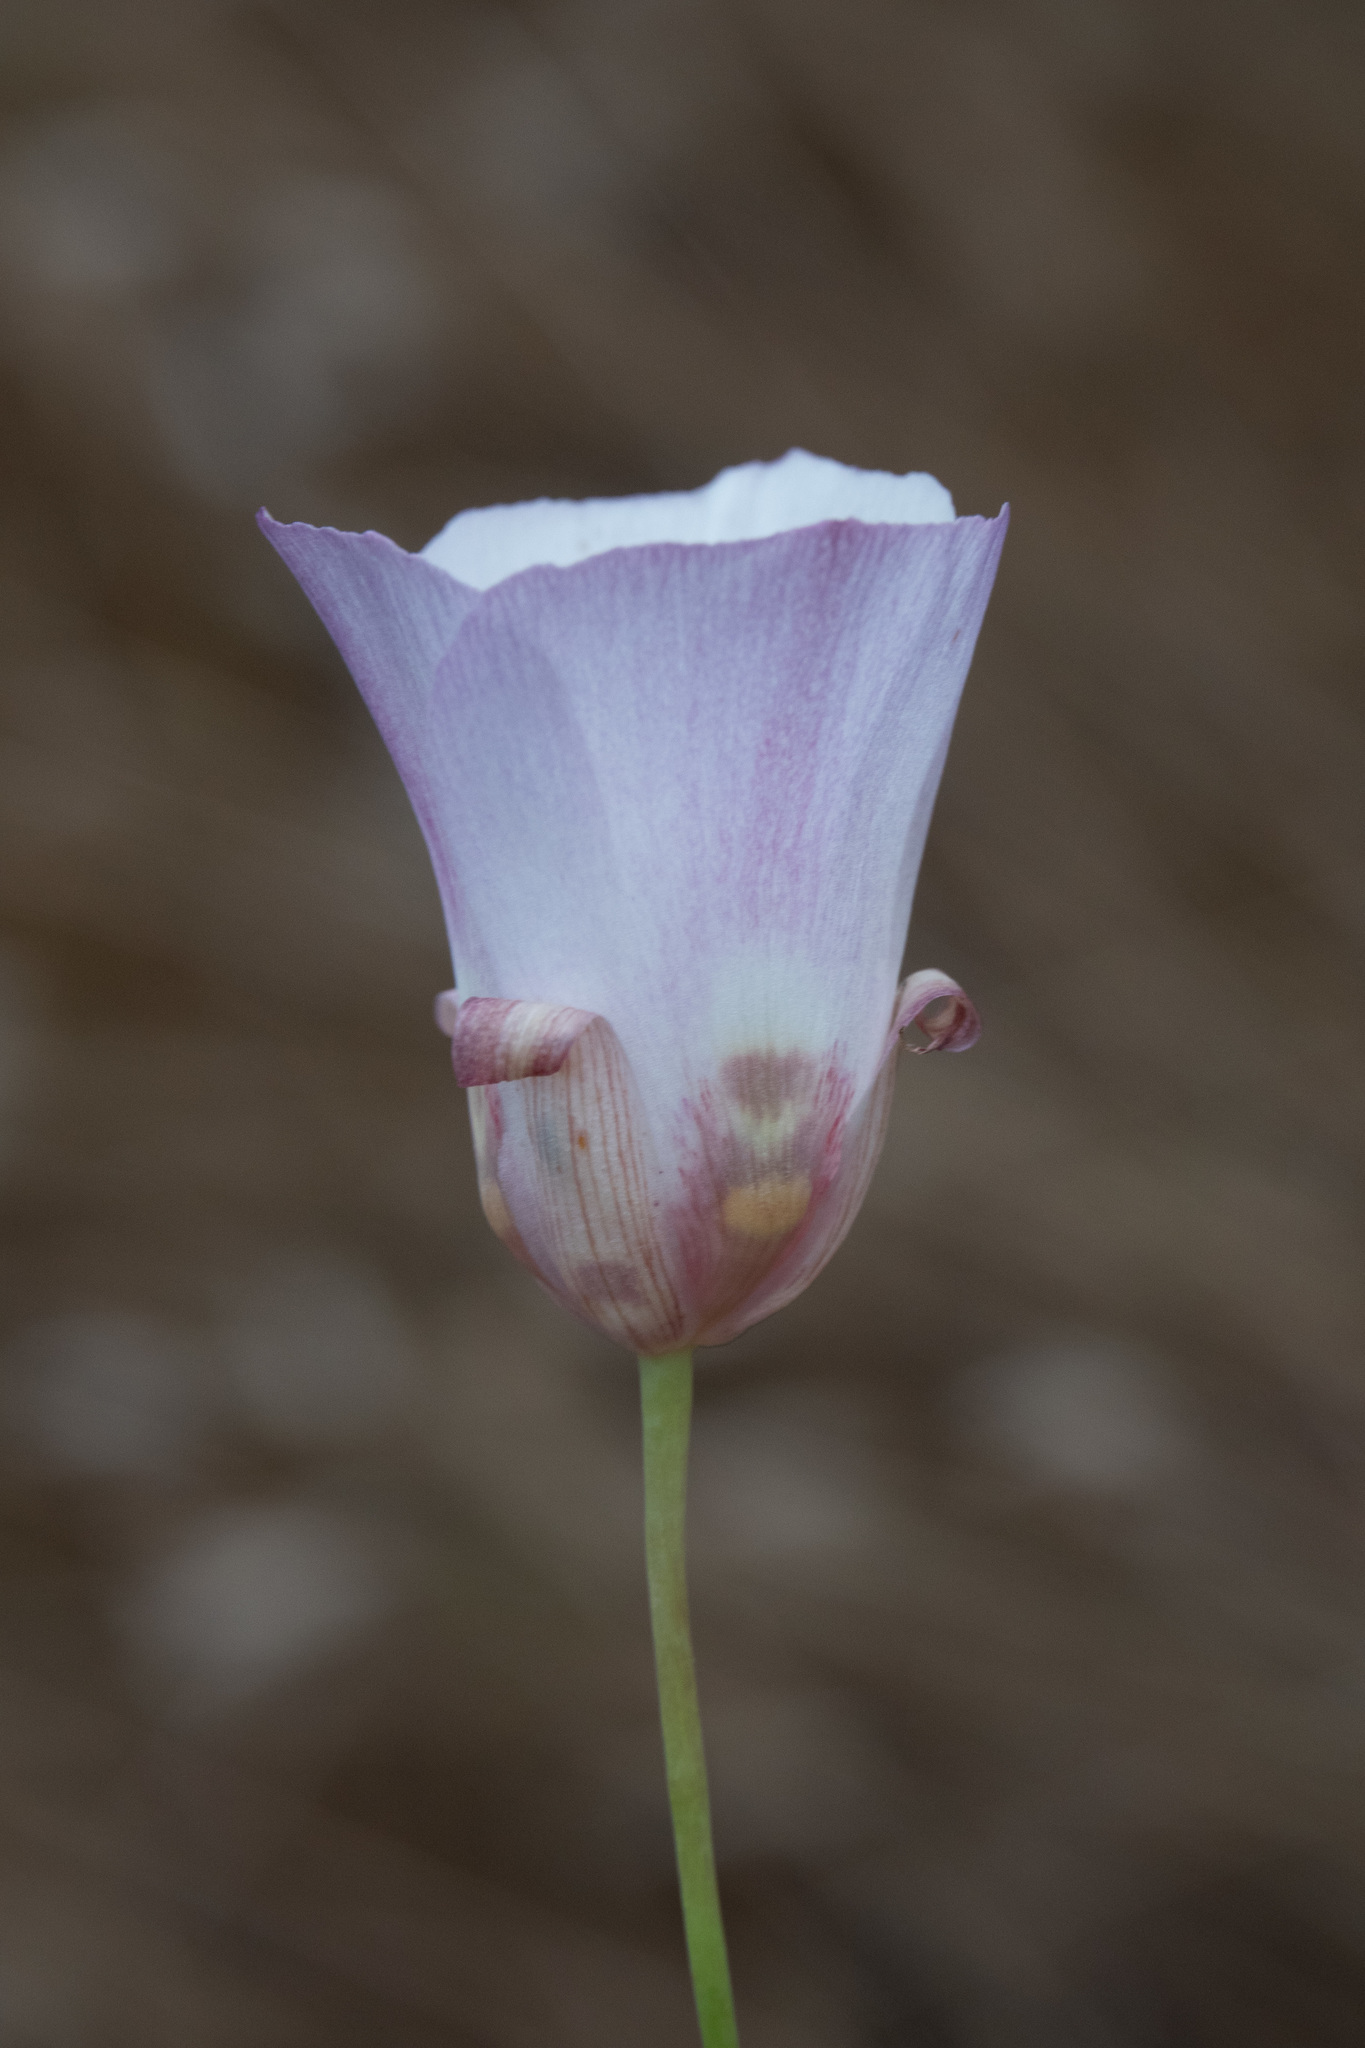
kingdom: Plantae
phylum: Tracheophyta
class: Liliopsida
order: Liliales
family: Liliaceae
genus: Calochortus
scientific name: Calochortus simulans
